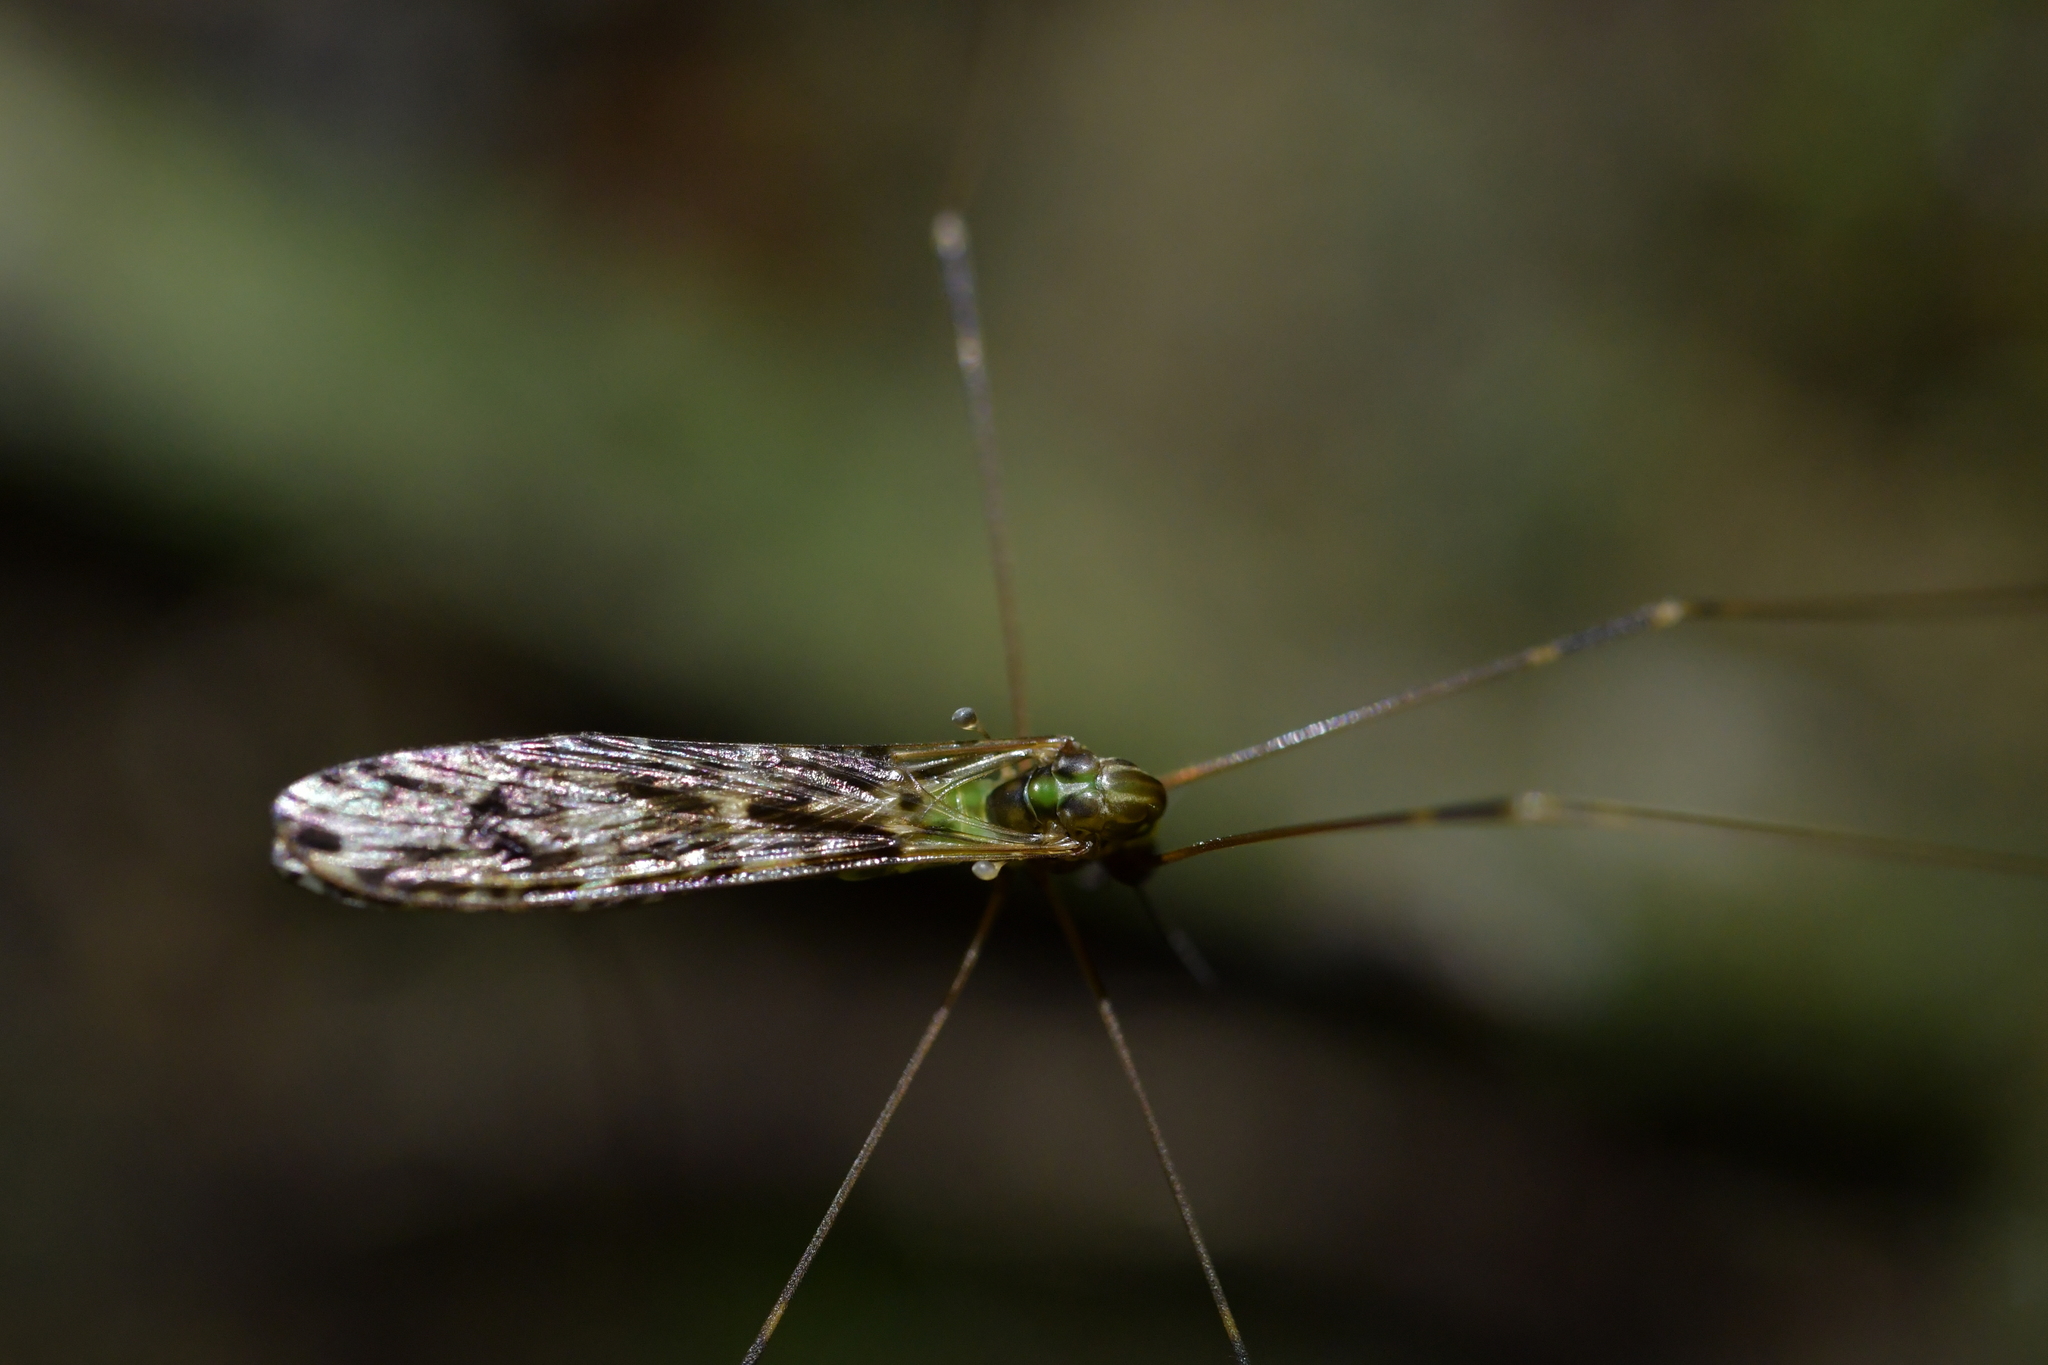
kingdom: Animalia
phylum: Arthropoda
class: Insecta
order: Diptera
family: Limoniidae
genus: Discobola
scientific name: Discobola dohrni
